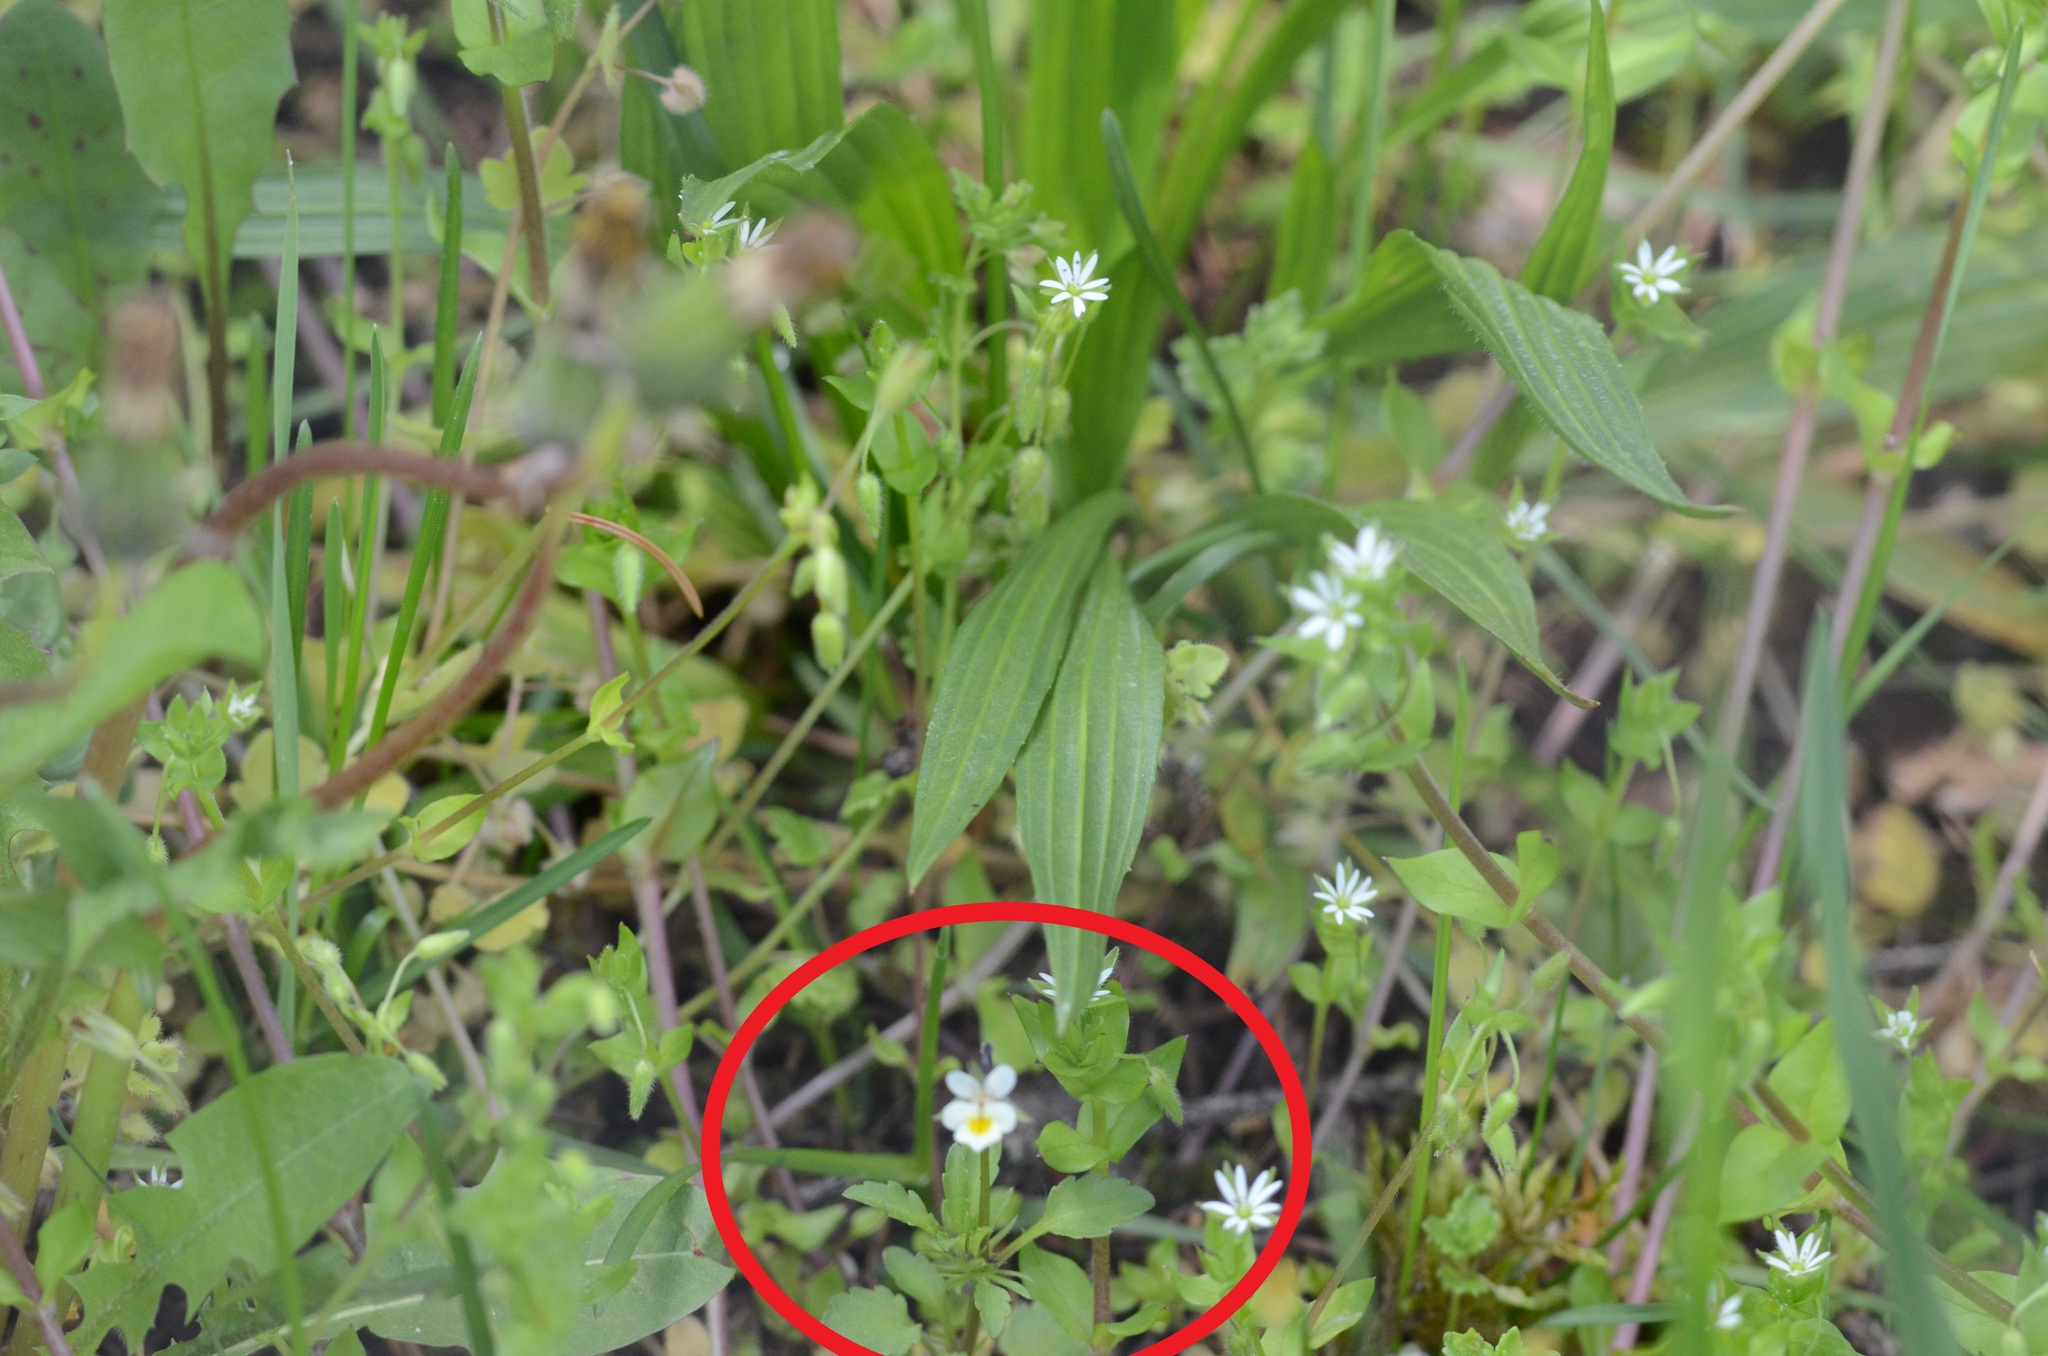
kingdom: Plantae
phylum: Tracheophyta
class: Magnoliopsida
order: Malpighiales
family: Violaceae
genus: Viola
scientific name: Viola arvensis
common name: Field pansy
